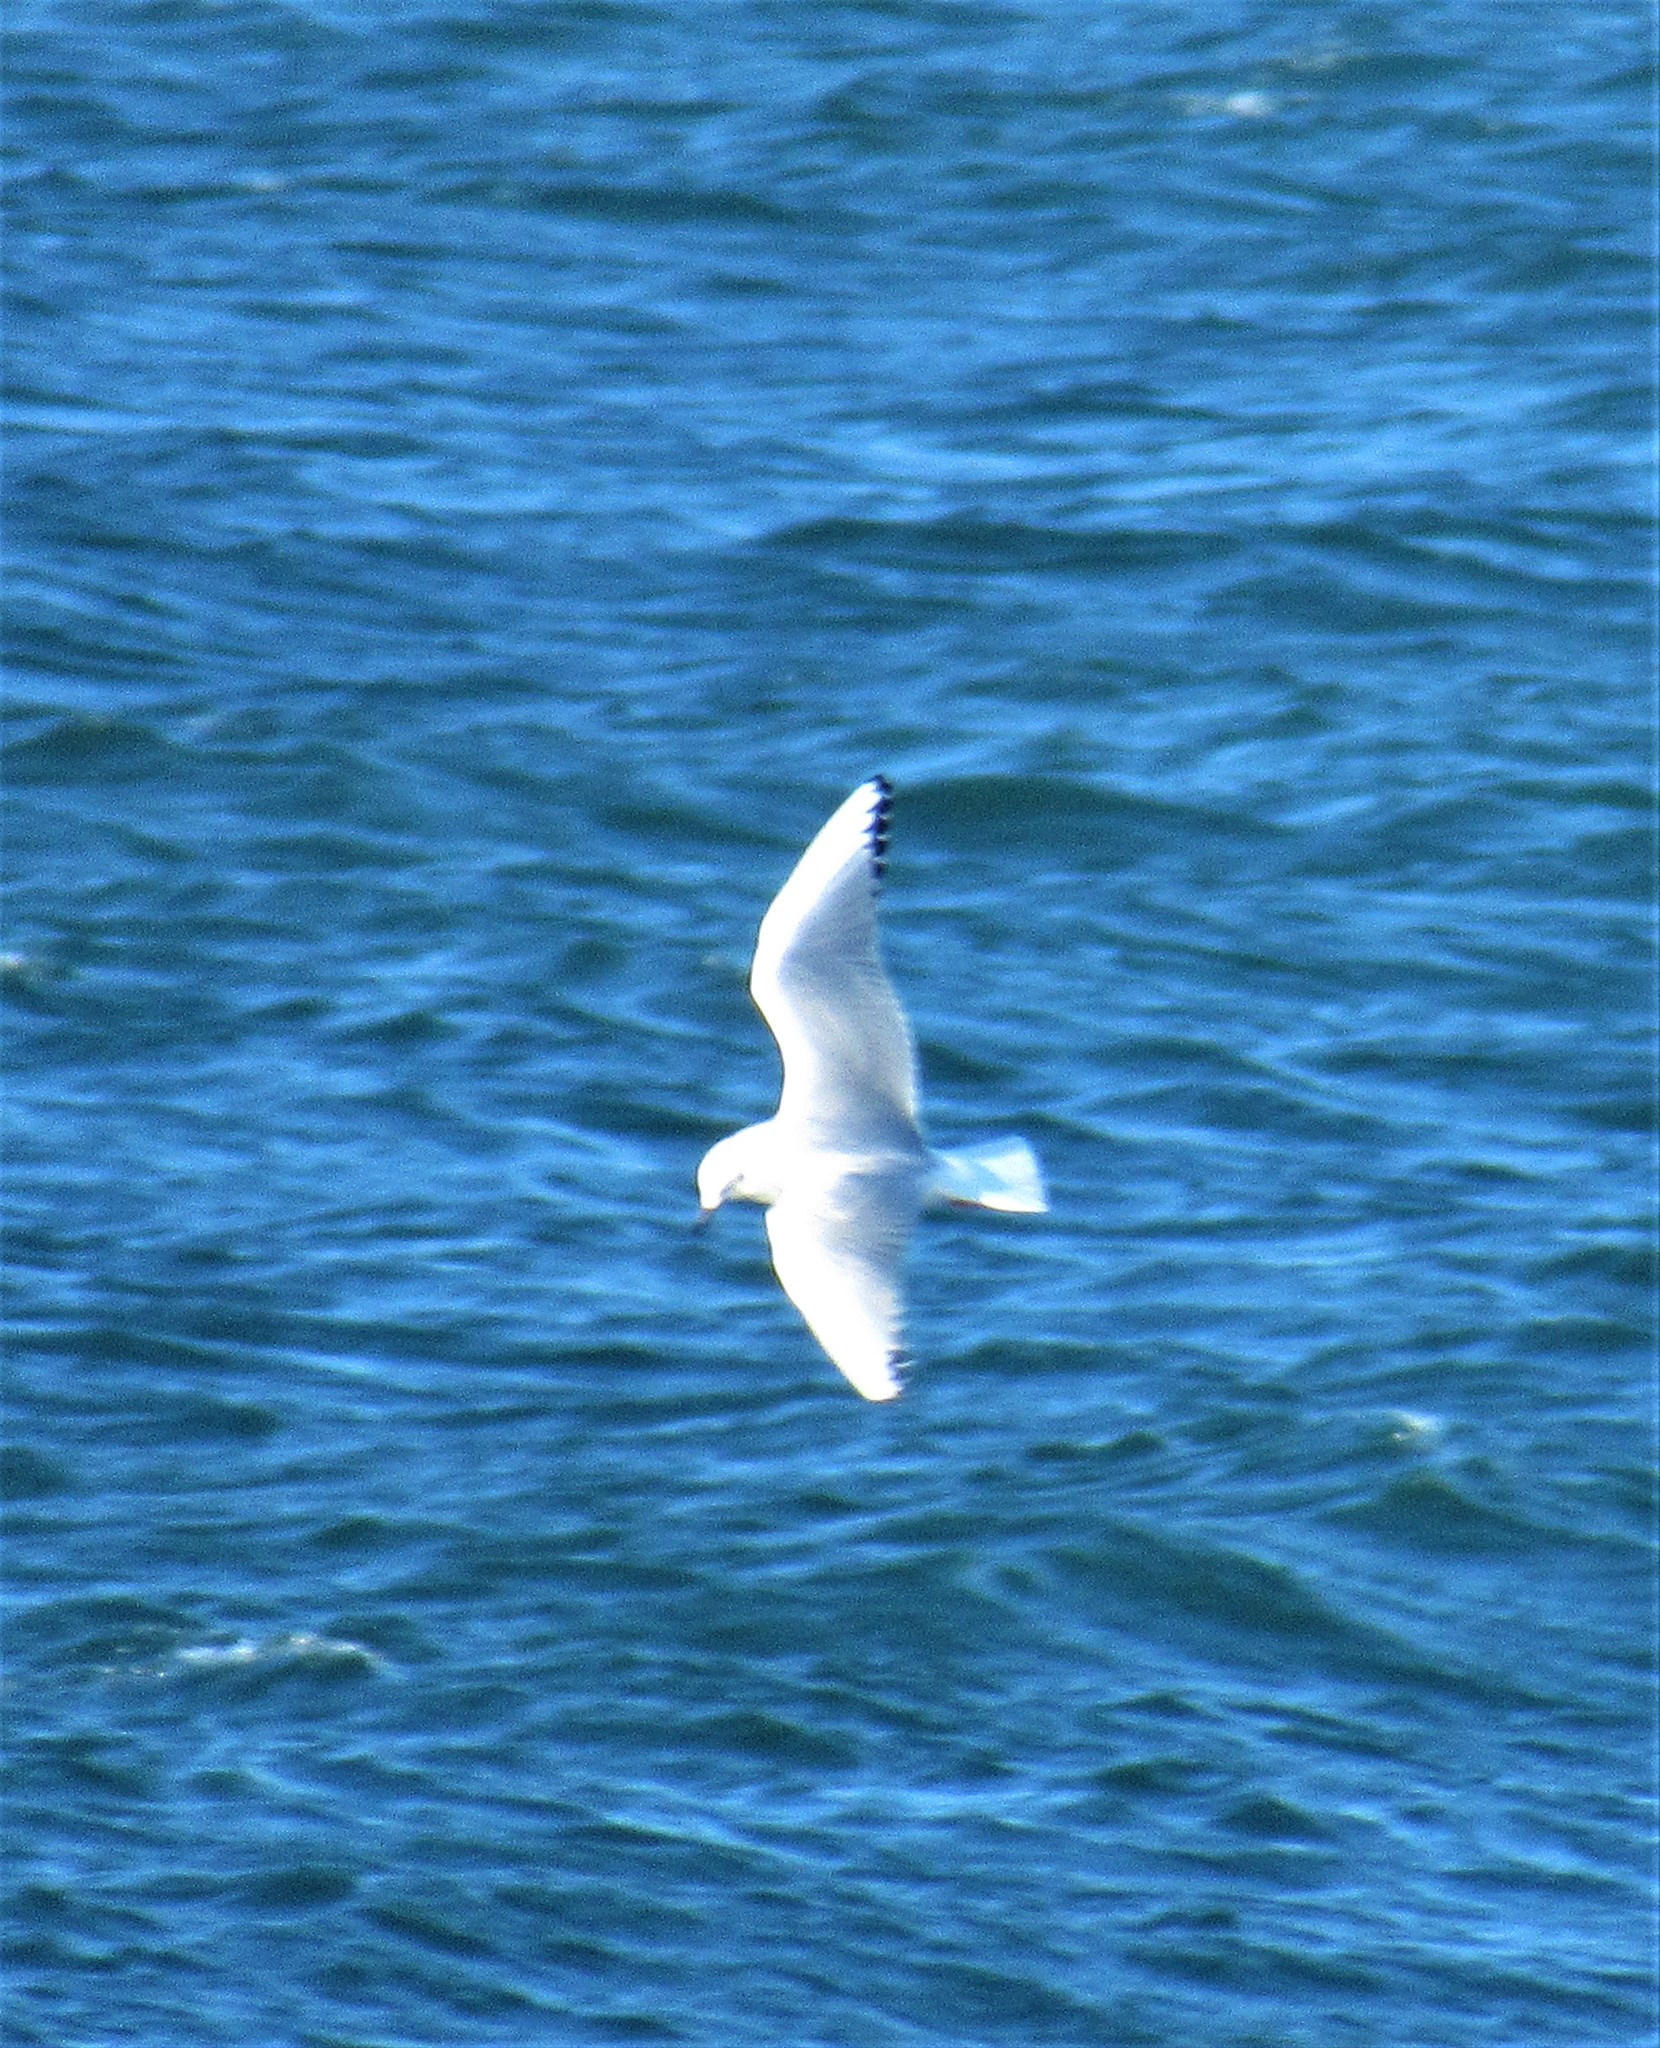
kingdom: Animalia
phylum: Chordata
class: Aves
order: Charadriiformes
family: Laridae
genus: Chroicocephalus
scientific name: Chroicocephalus philadelphia
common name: Bonaparte's gull
